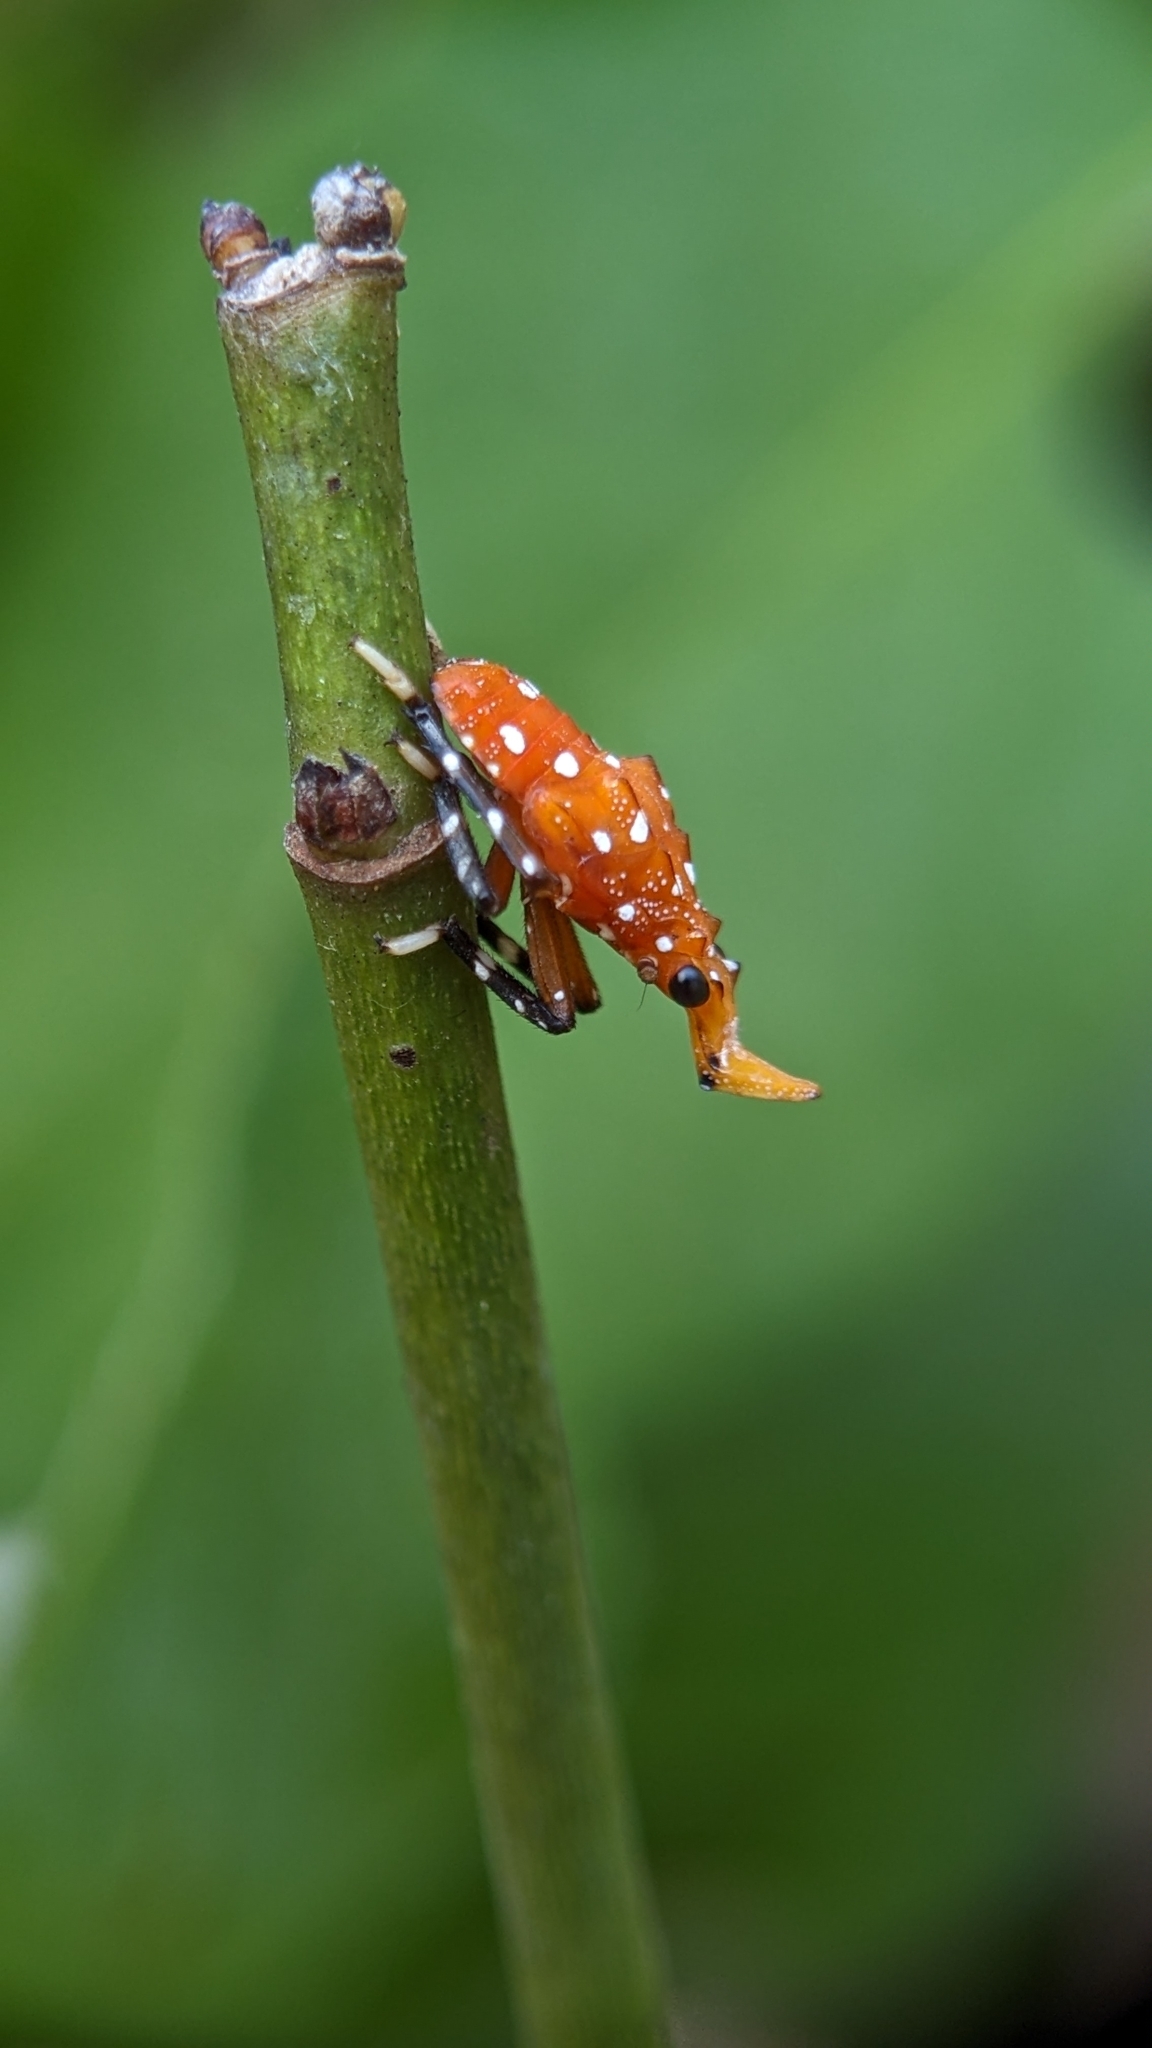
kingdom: Animalia
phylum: Arthropoda
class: Insecta
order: Hemiptera
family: Fulgoridae
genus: Kalidasa
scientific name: Kalidasa lanata
